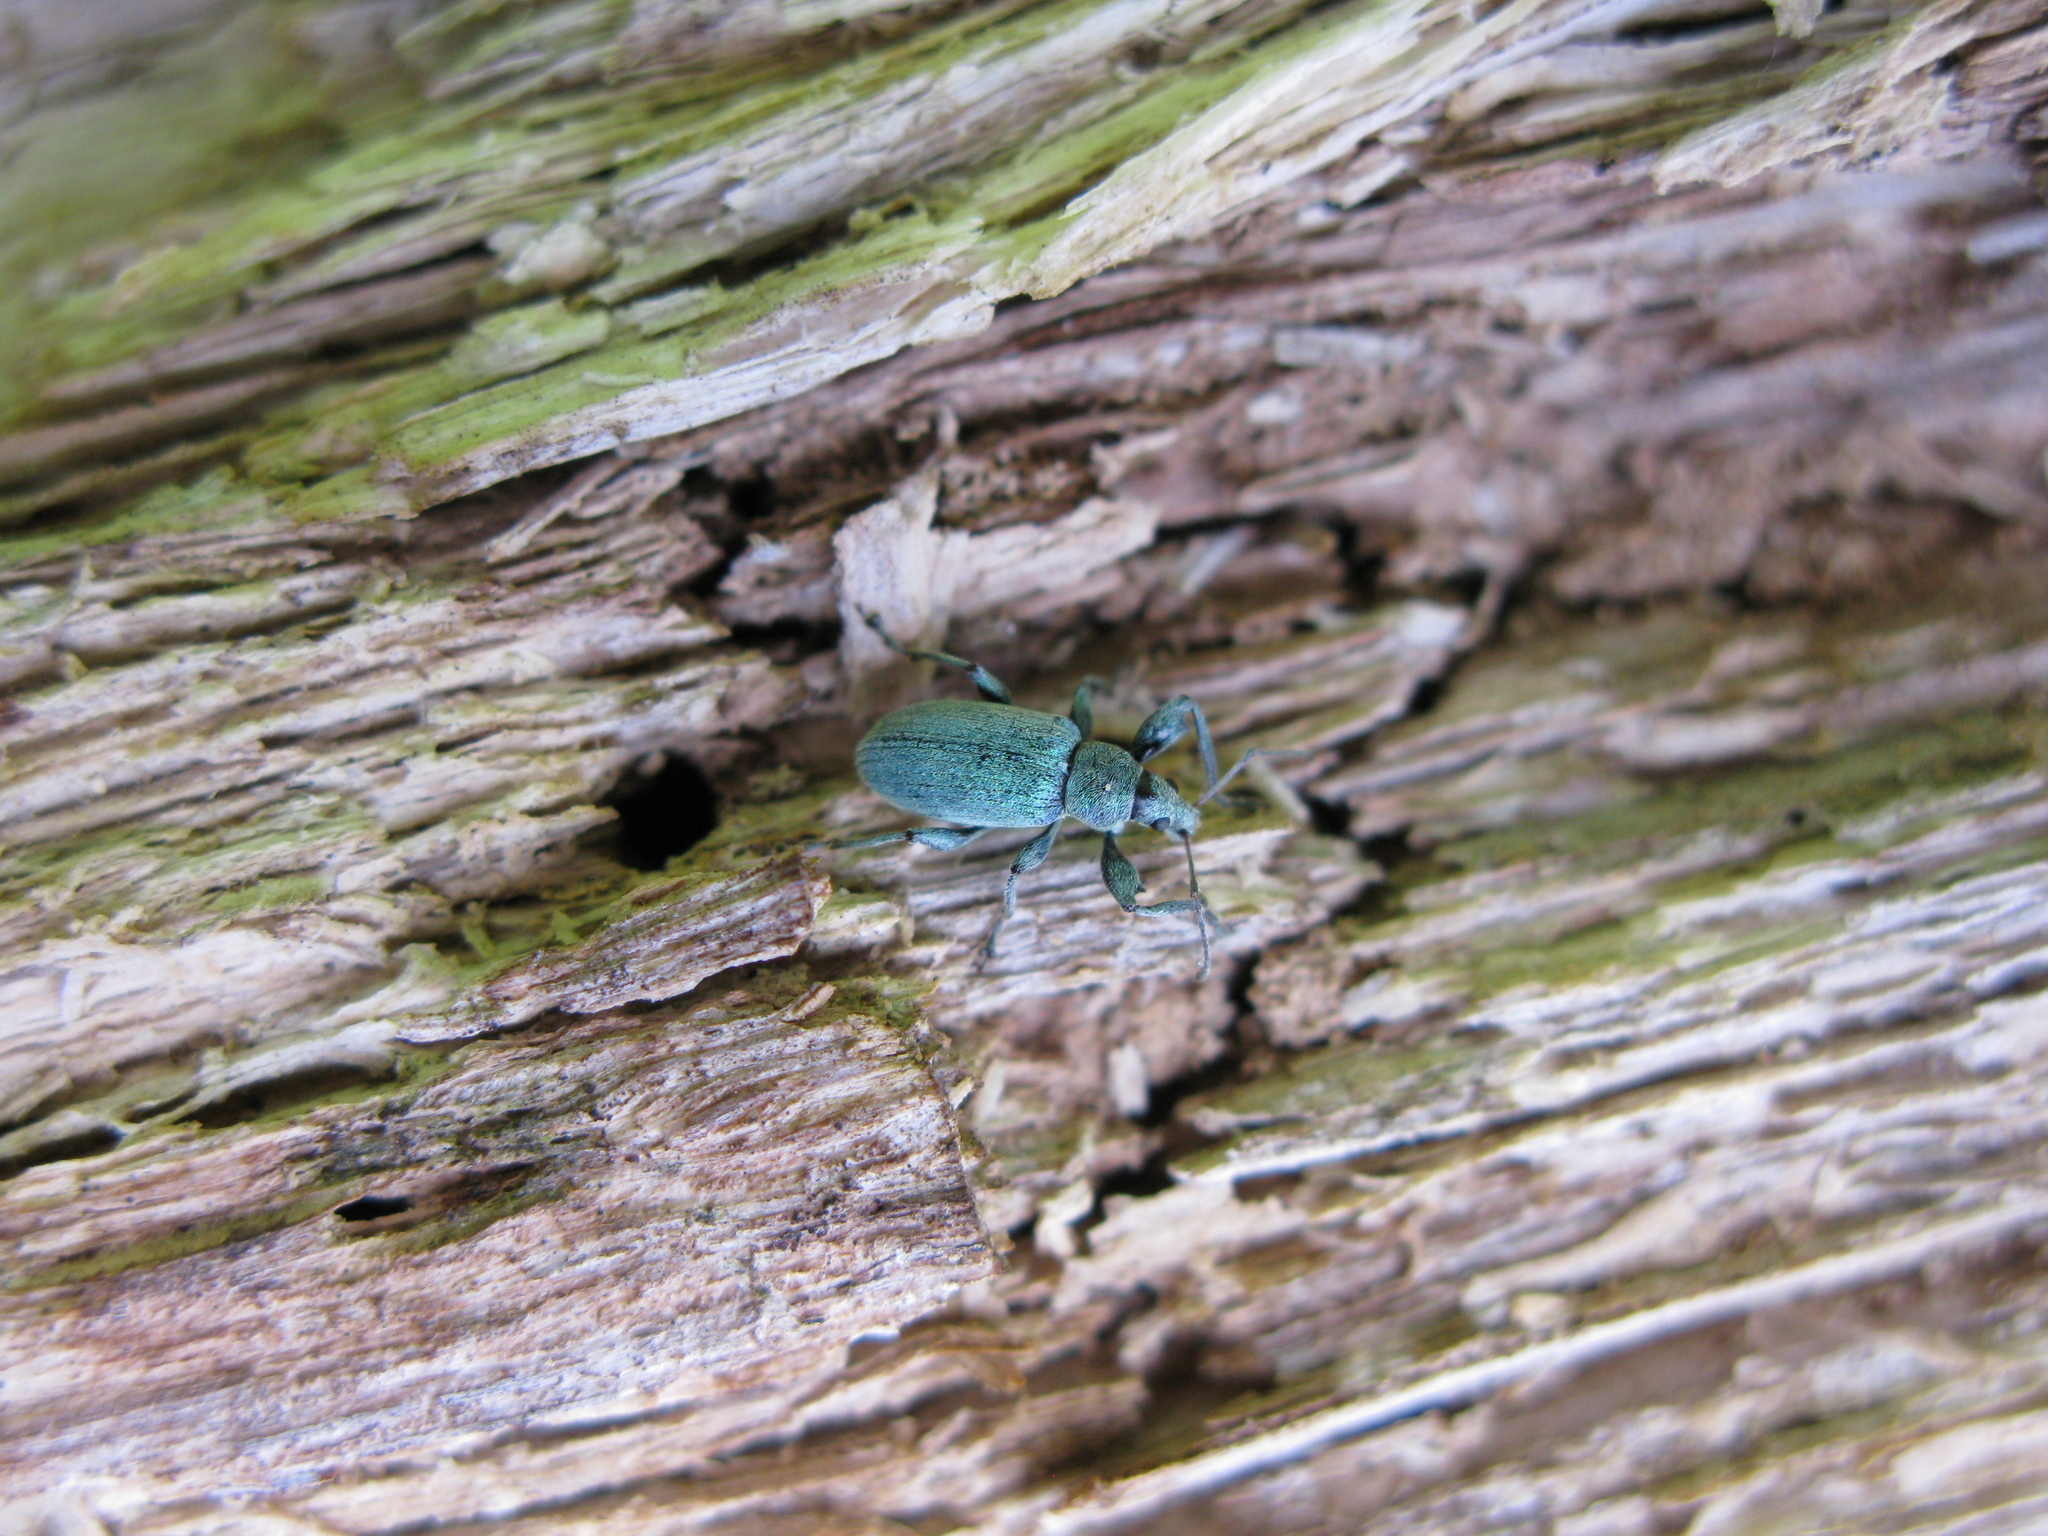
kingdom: Animalia
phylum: Arthropoda
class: Insecta
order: Coleoptera
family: Curculionidae
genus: Phyllobius
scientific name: Phyllobius pomaceus
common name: Green nettle weevil
